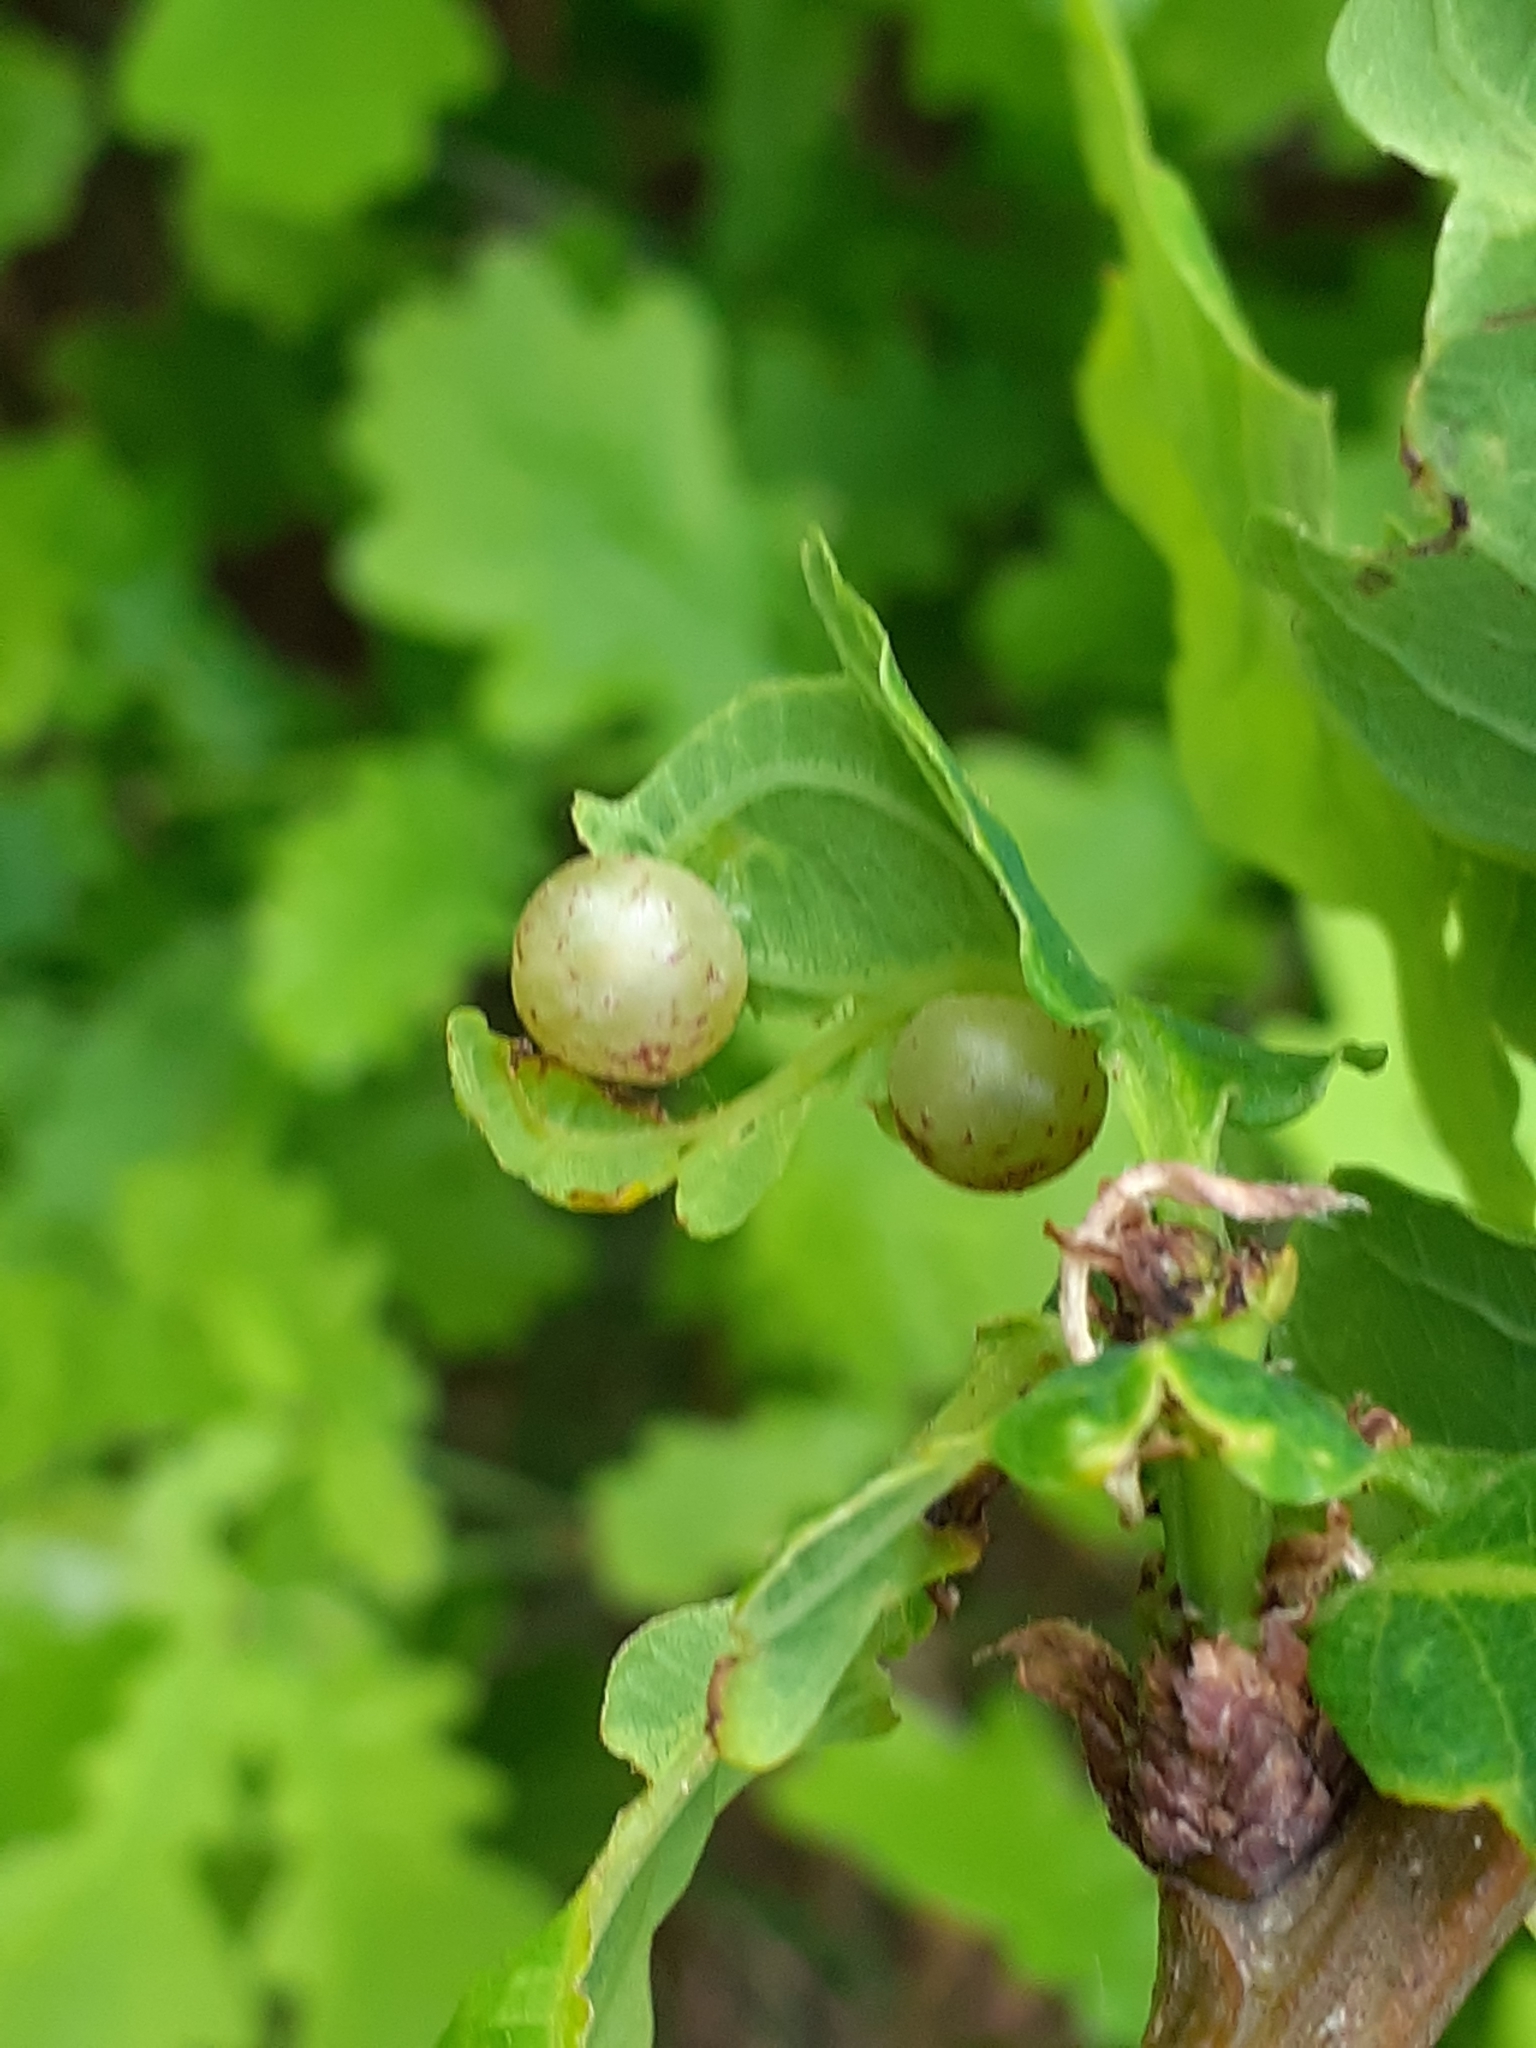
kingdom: Animalia
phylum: Arthropoda
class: Insecta
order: Hymenoptera
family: Cynipidae
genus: Neuroterus
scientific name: Neuroterus quercusbaccarum
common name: Common spangle gall
